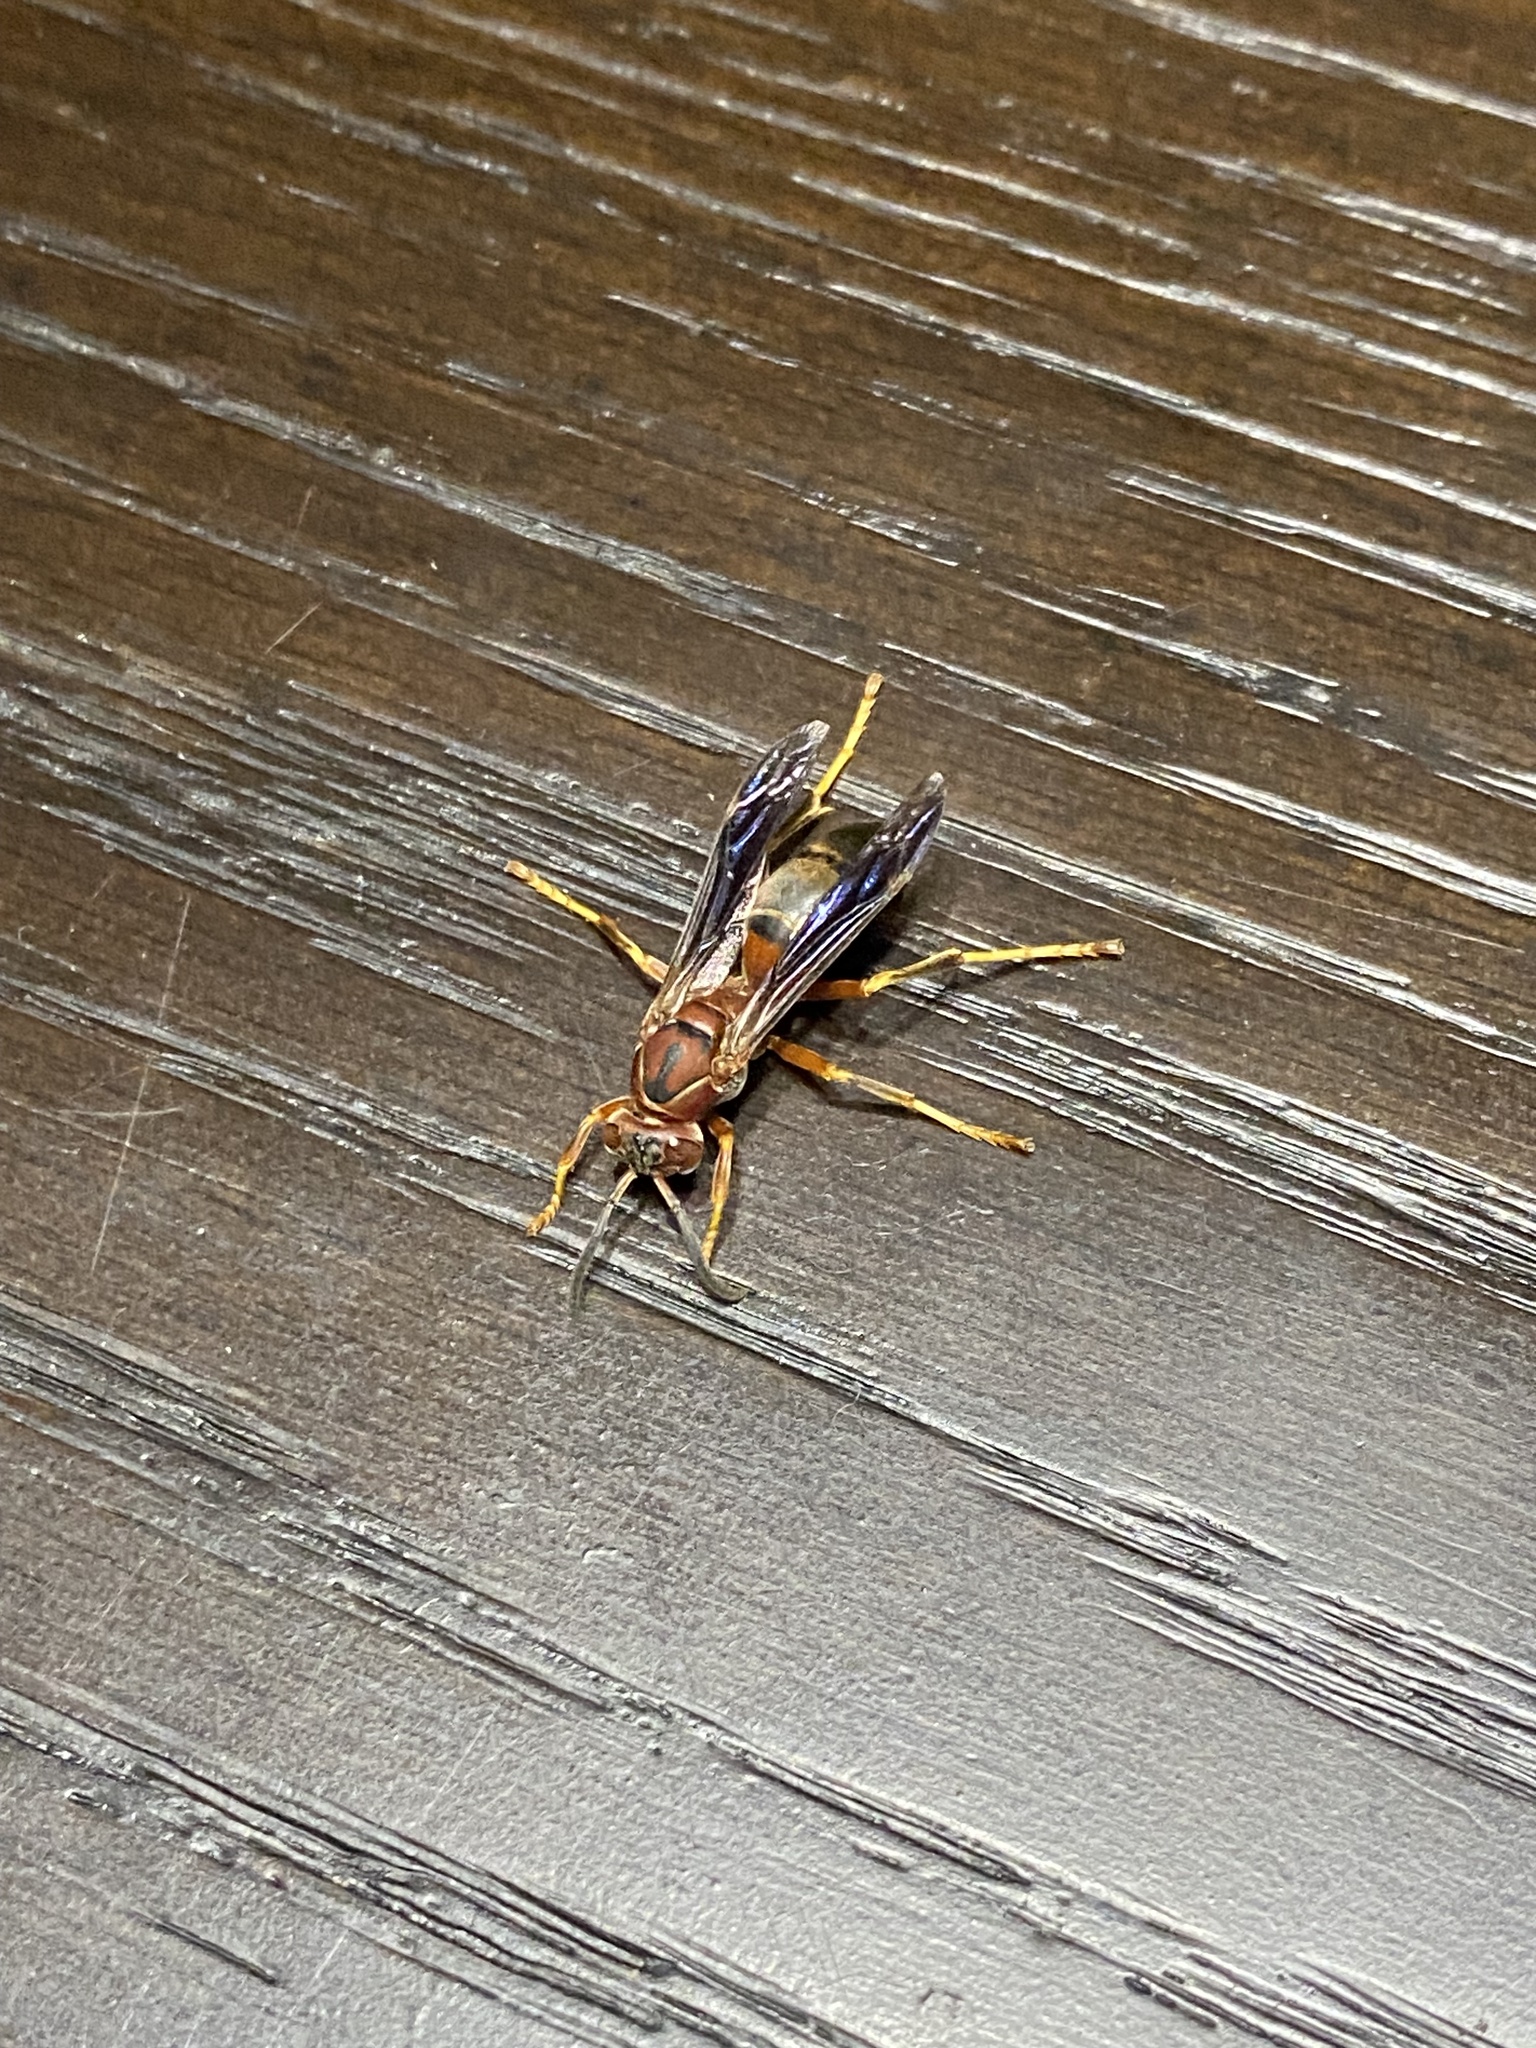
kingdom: Animalia
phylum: Arthropoda
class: Insecta
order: Hymenoptera
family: Eumenidae
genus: Polistes
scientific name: Polistes metricus
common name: Metric paper wasp
